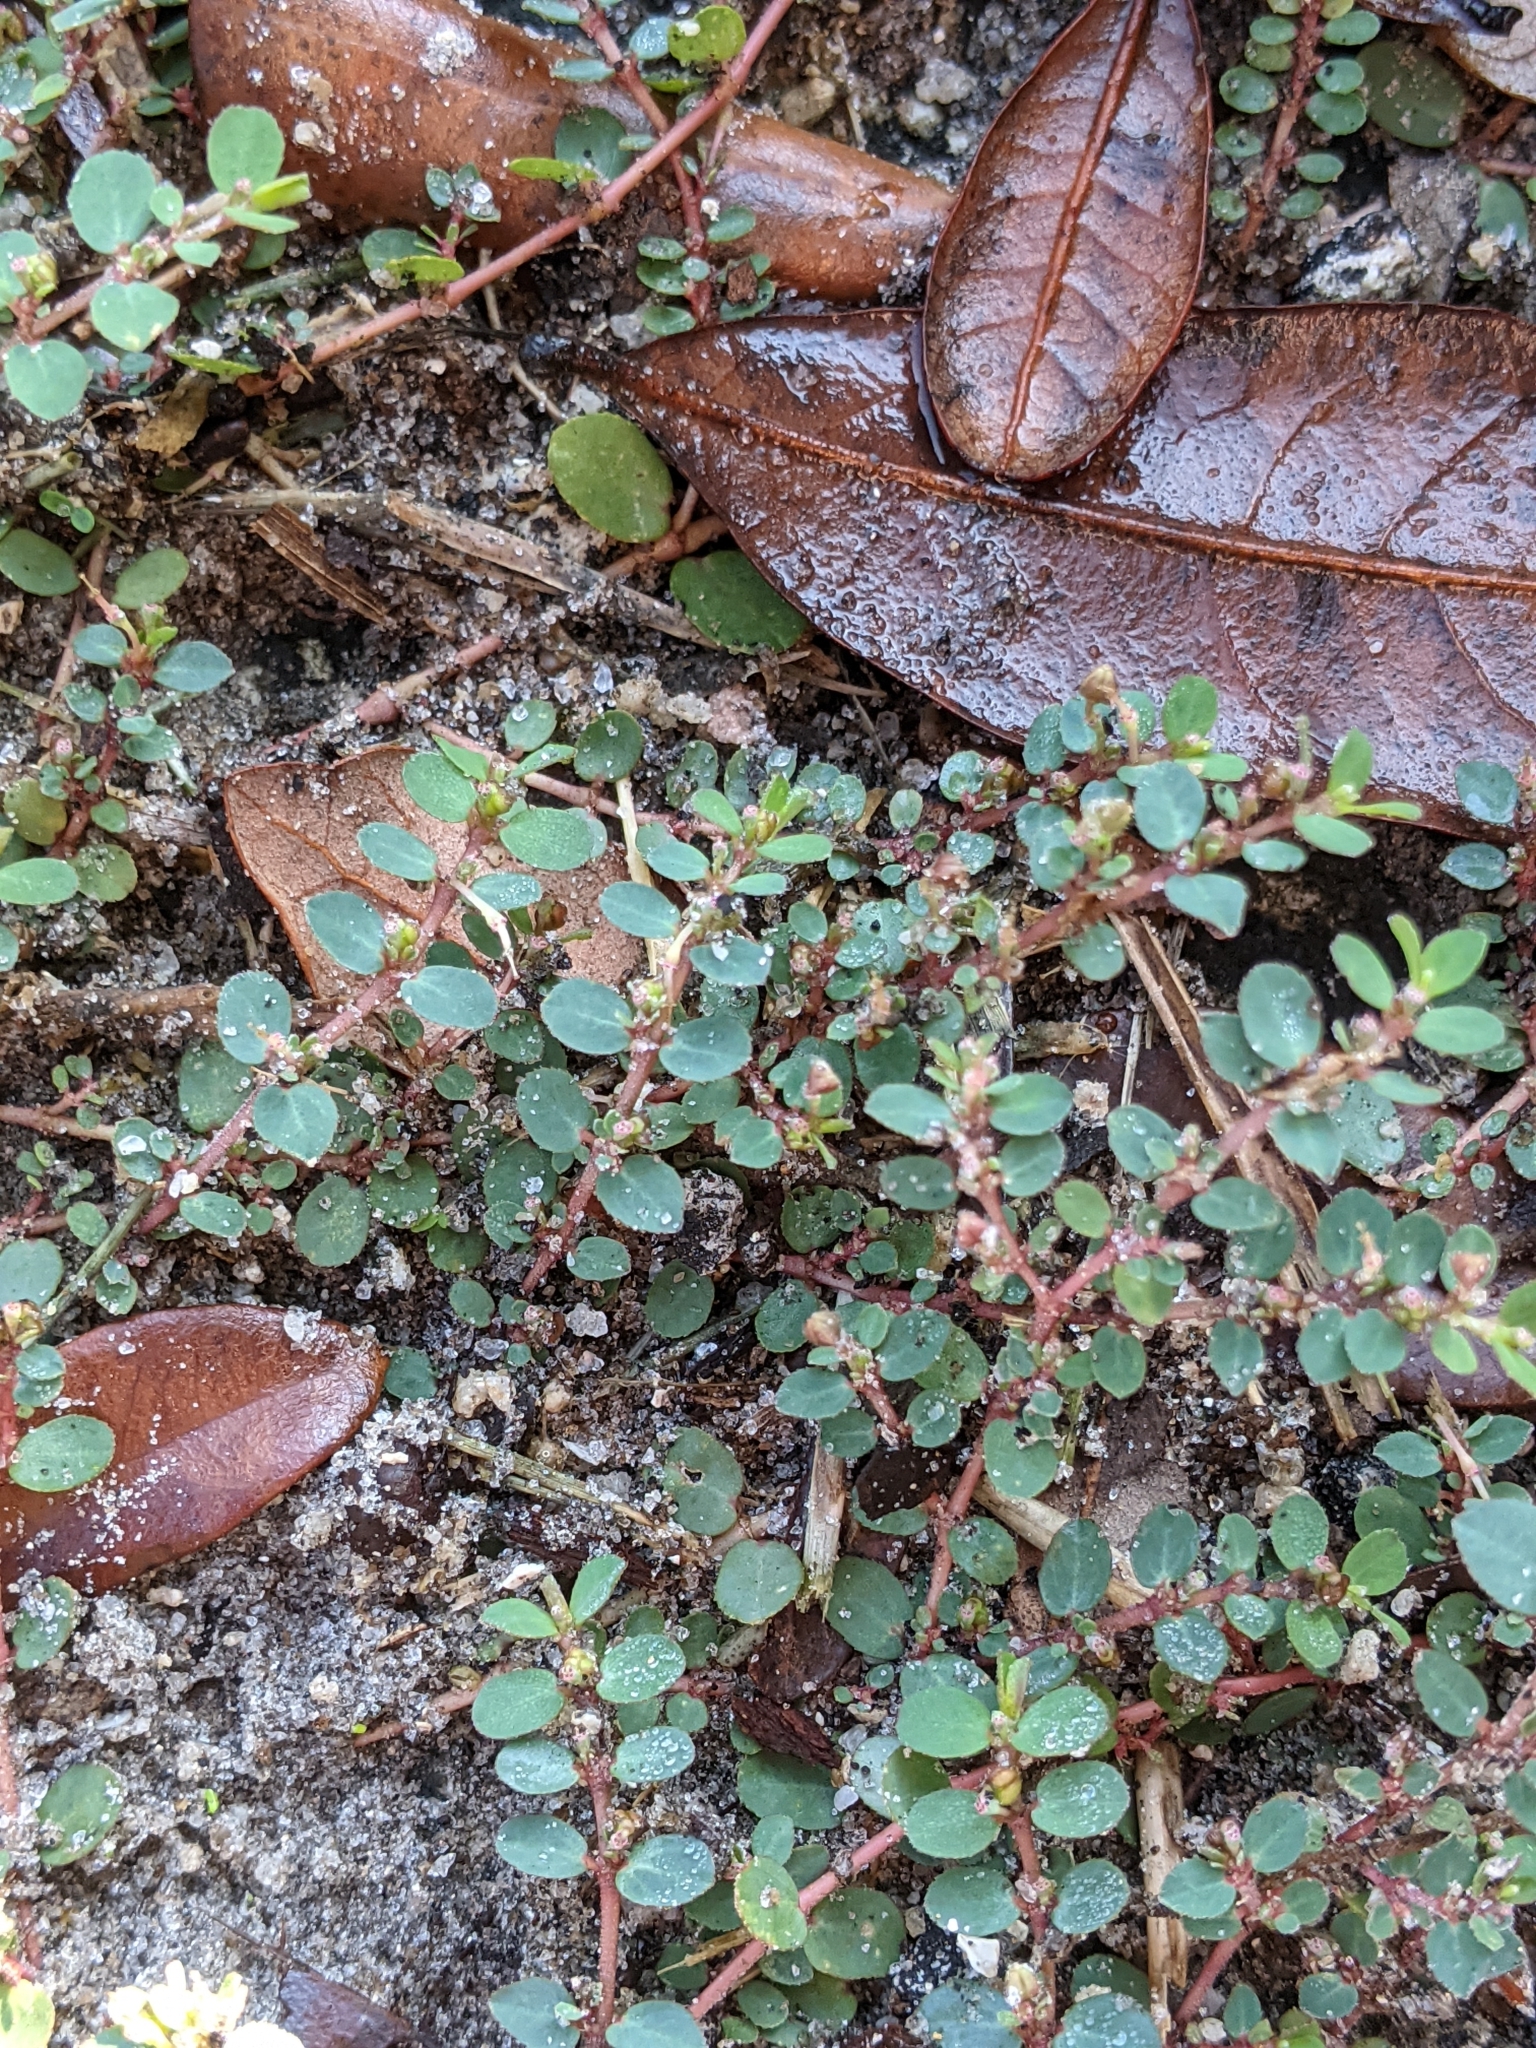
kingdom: Plantae
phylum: Tracheophyta
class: Magnoliopsida
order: Malpighiales
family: Euphorbiaceae
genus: Euphorbia
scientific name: Euphorbia prostrata
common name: Prostrate sandmat
